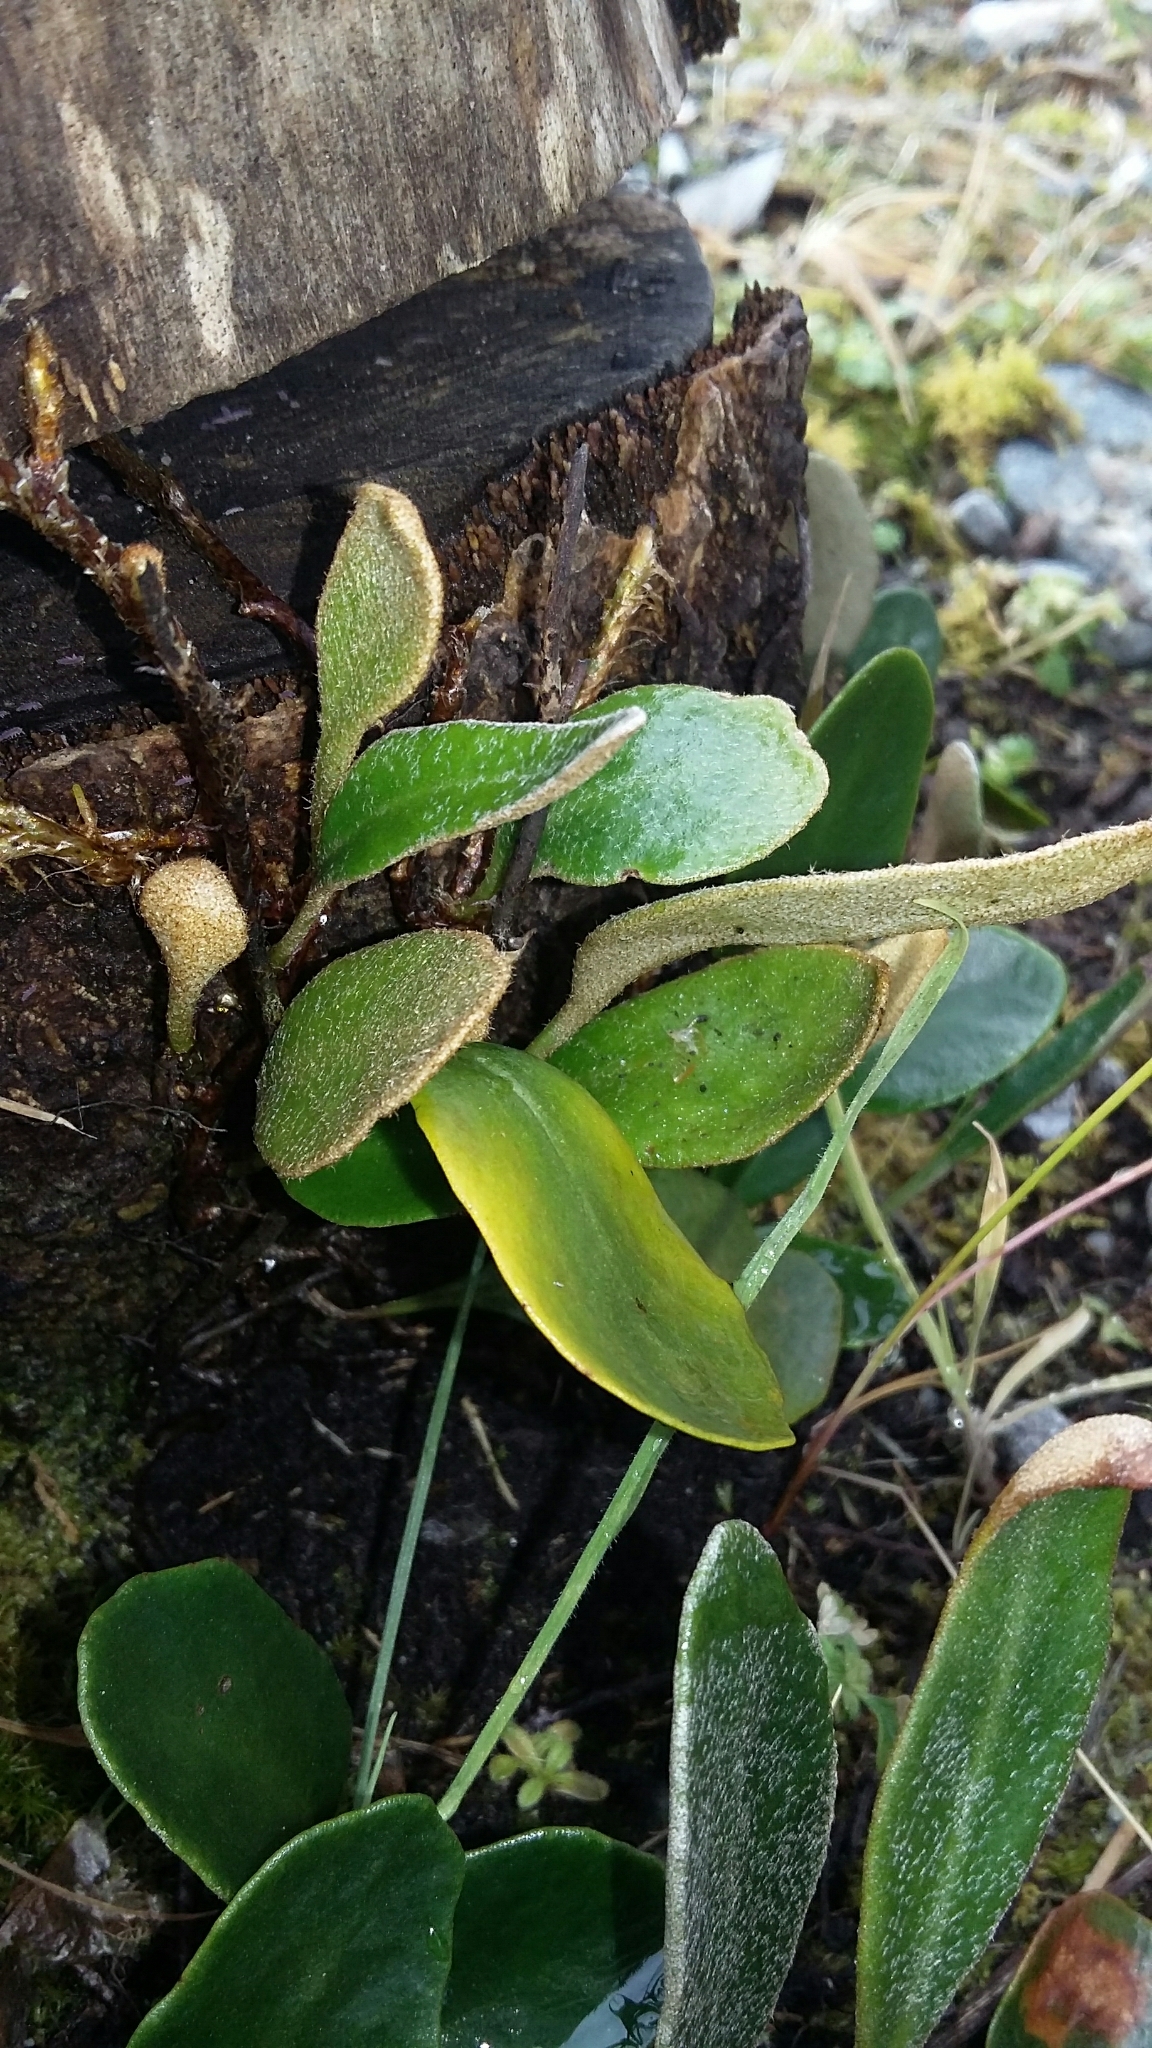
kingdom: Plantae
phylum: Tracheophyta
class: Polypodiopsida
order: Polypodiales
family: Polypodiaceae
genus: Pyrrosia
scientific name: Pyrrosia eleagnifolia
